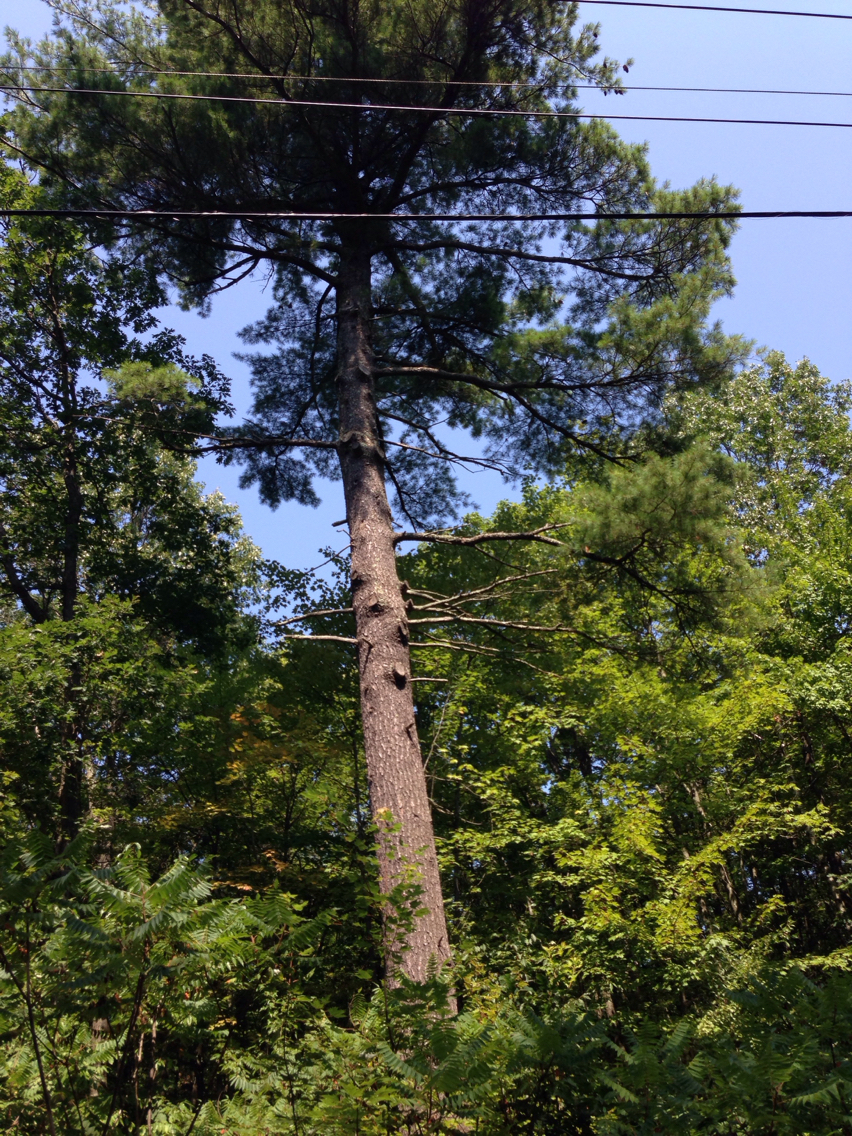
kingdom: Plantae
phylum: Tracheophyta
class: Pinopsida
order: Pinales
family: Pinaceae
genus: Pinus
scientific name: Pinus strobus
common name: Weymouth pine
